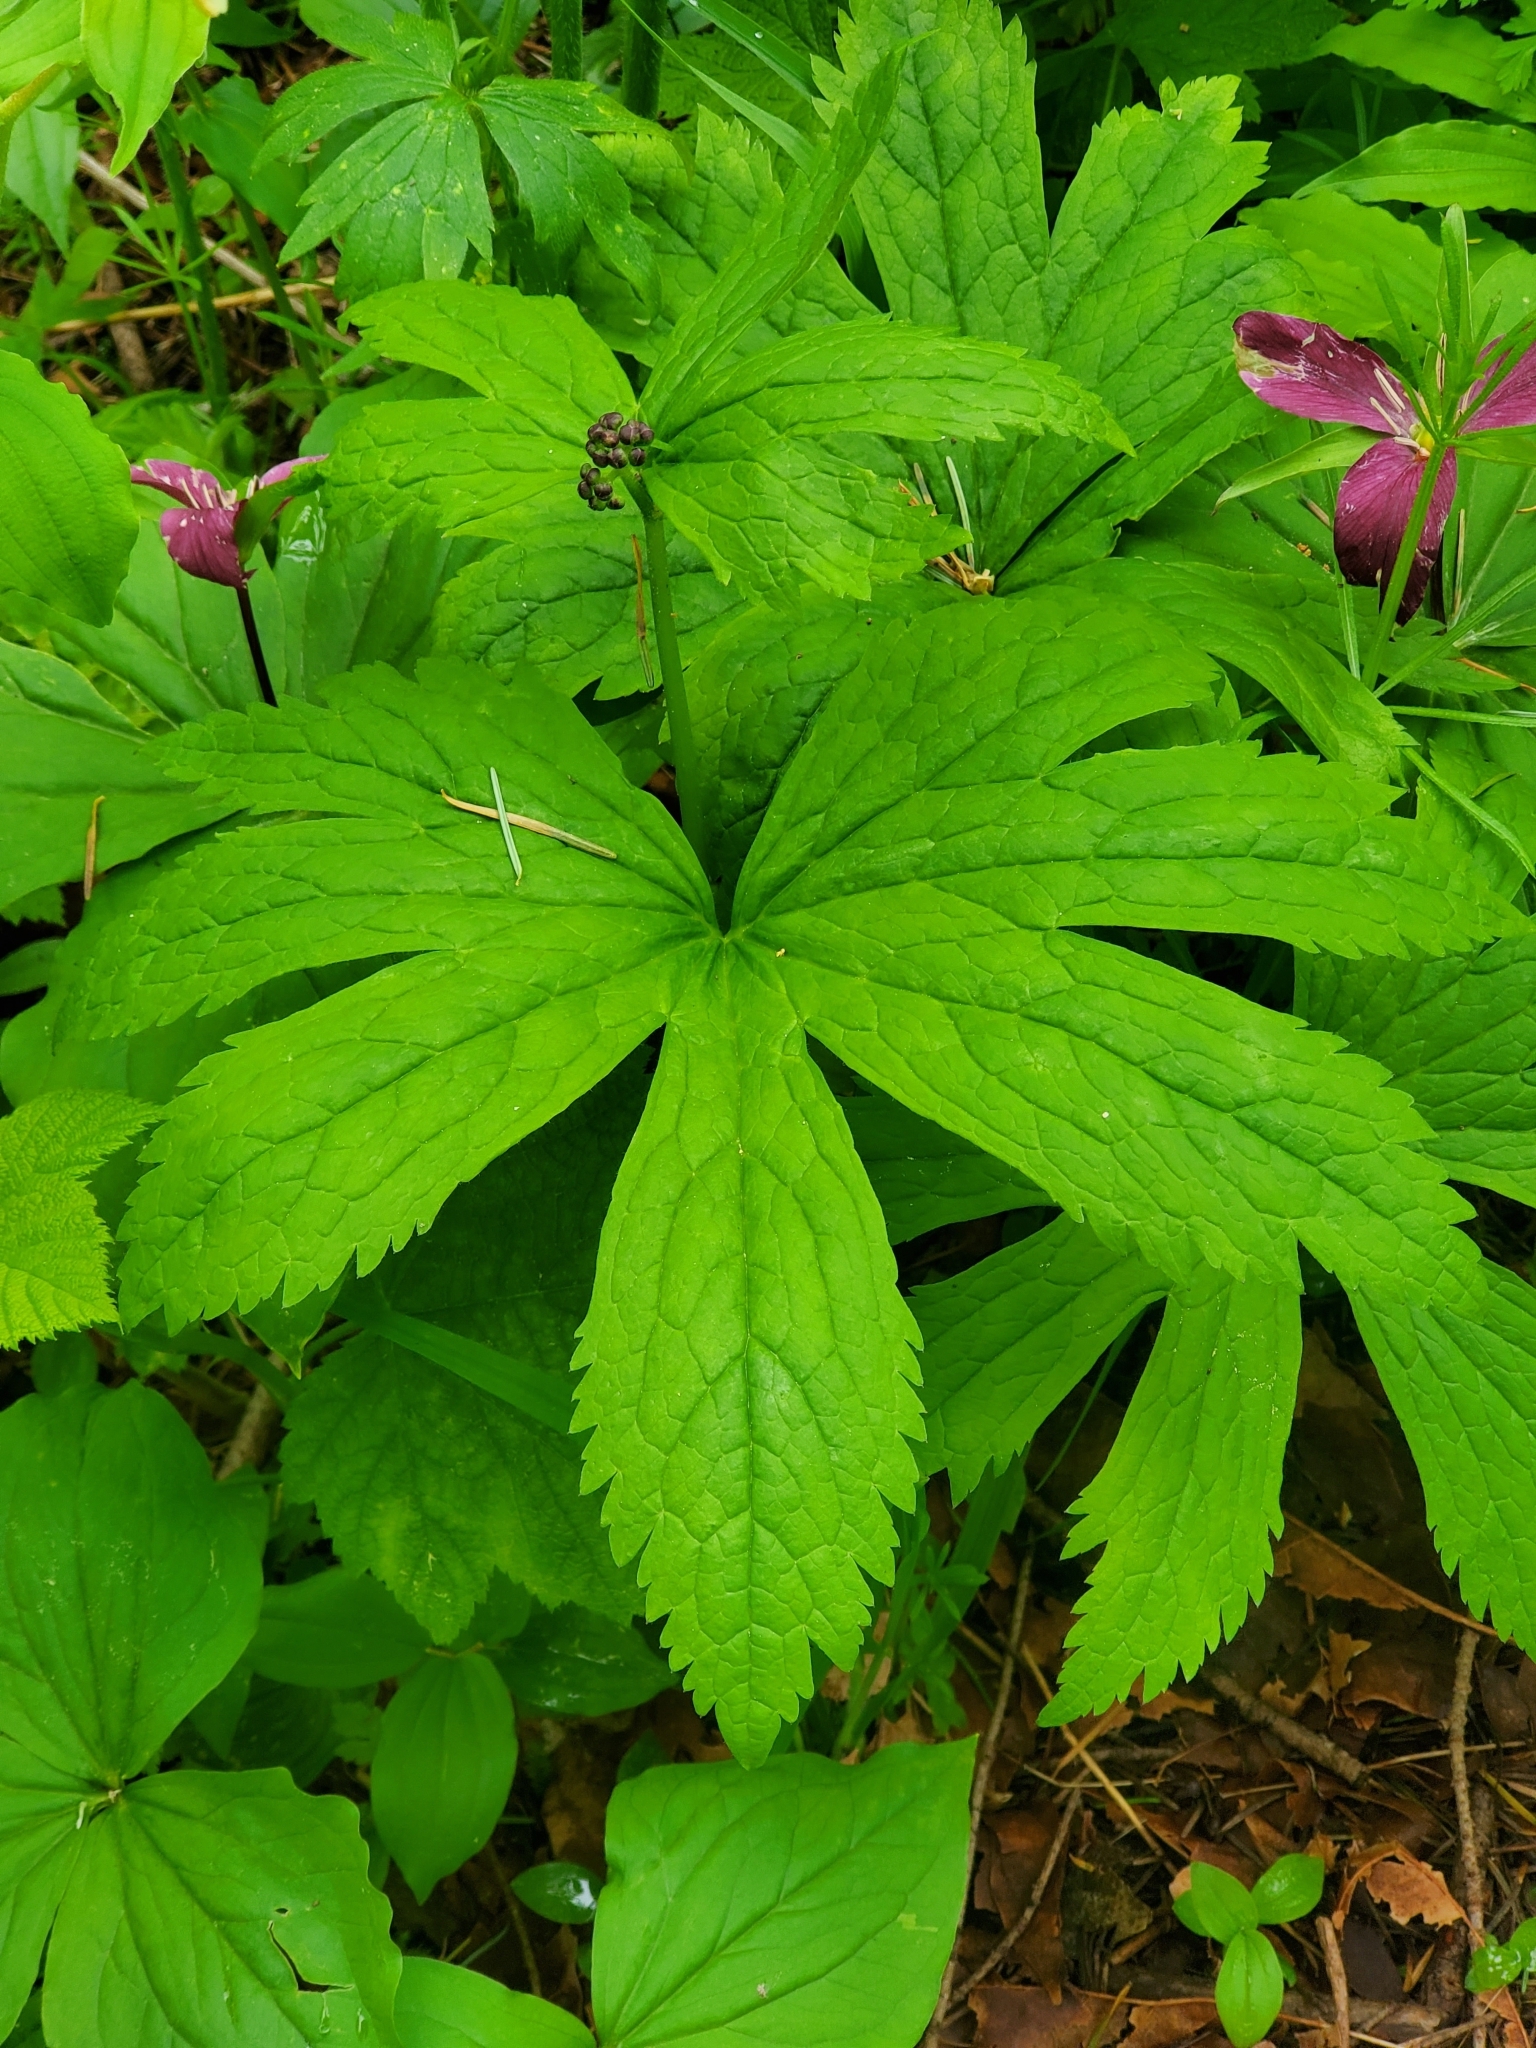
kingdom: Plantae
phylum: Tracheophyta
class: Magnoliopsida
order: Ranunculales
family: Ranunculaceae
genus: Trautvetteria
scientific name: Trautvetteria carolinensis
